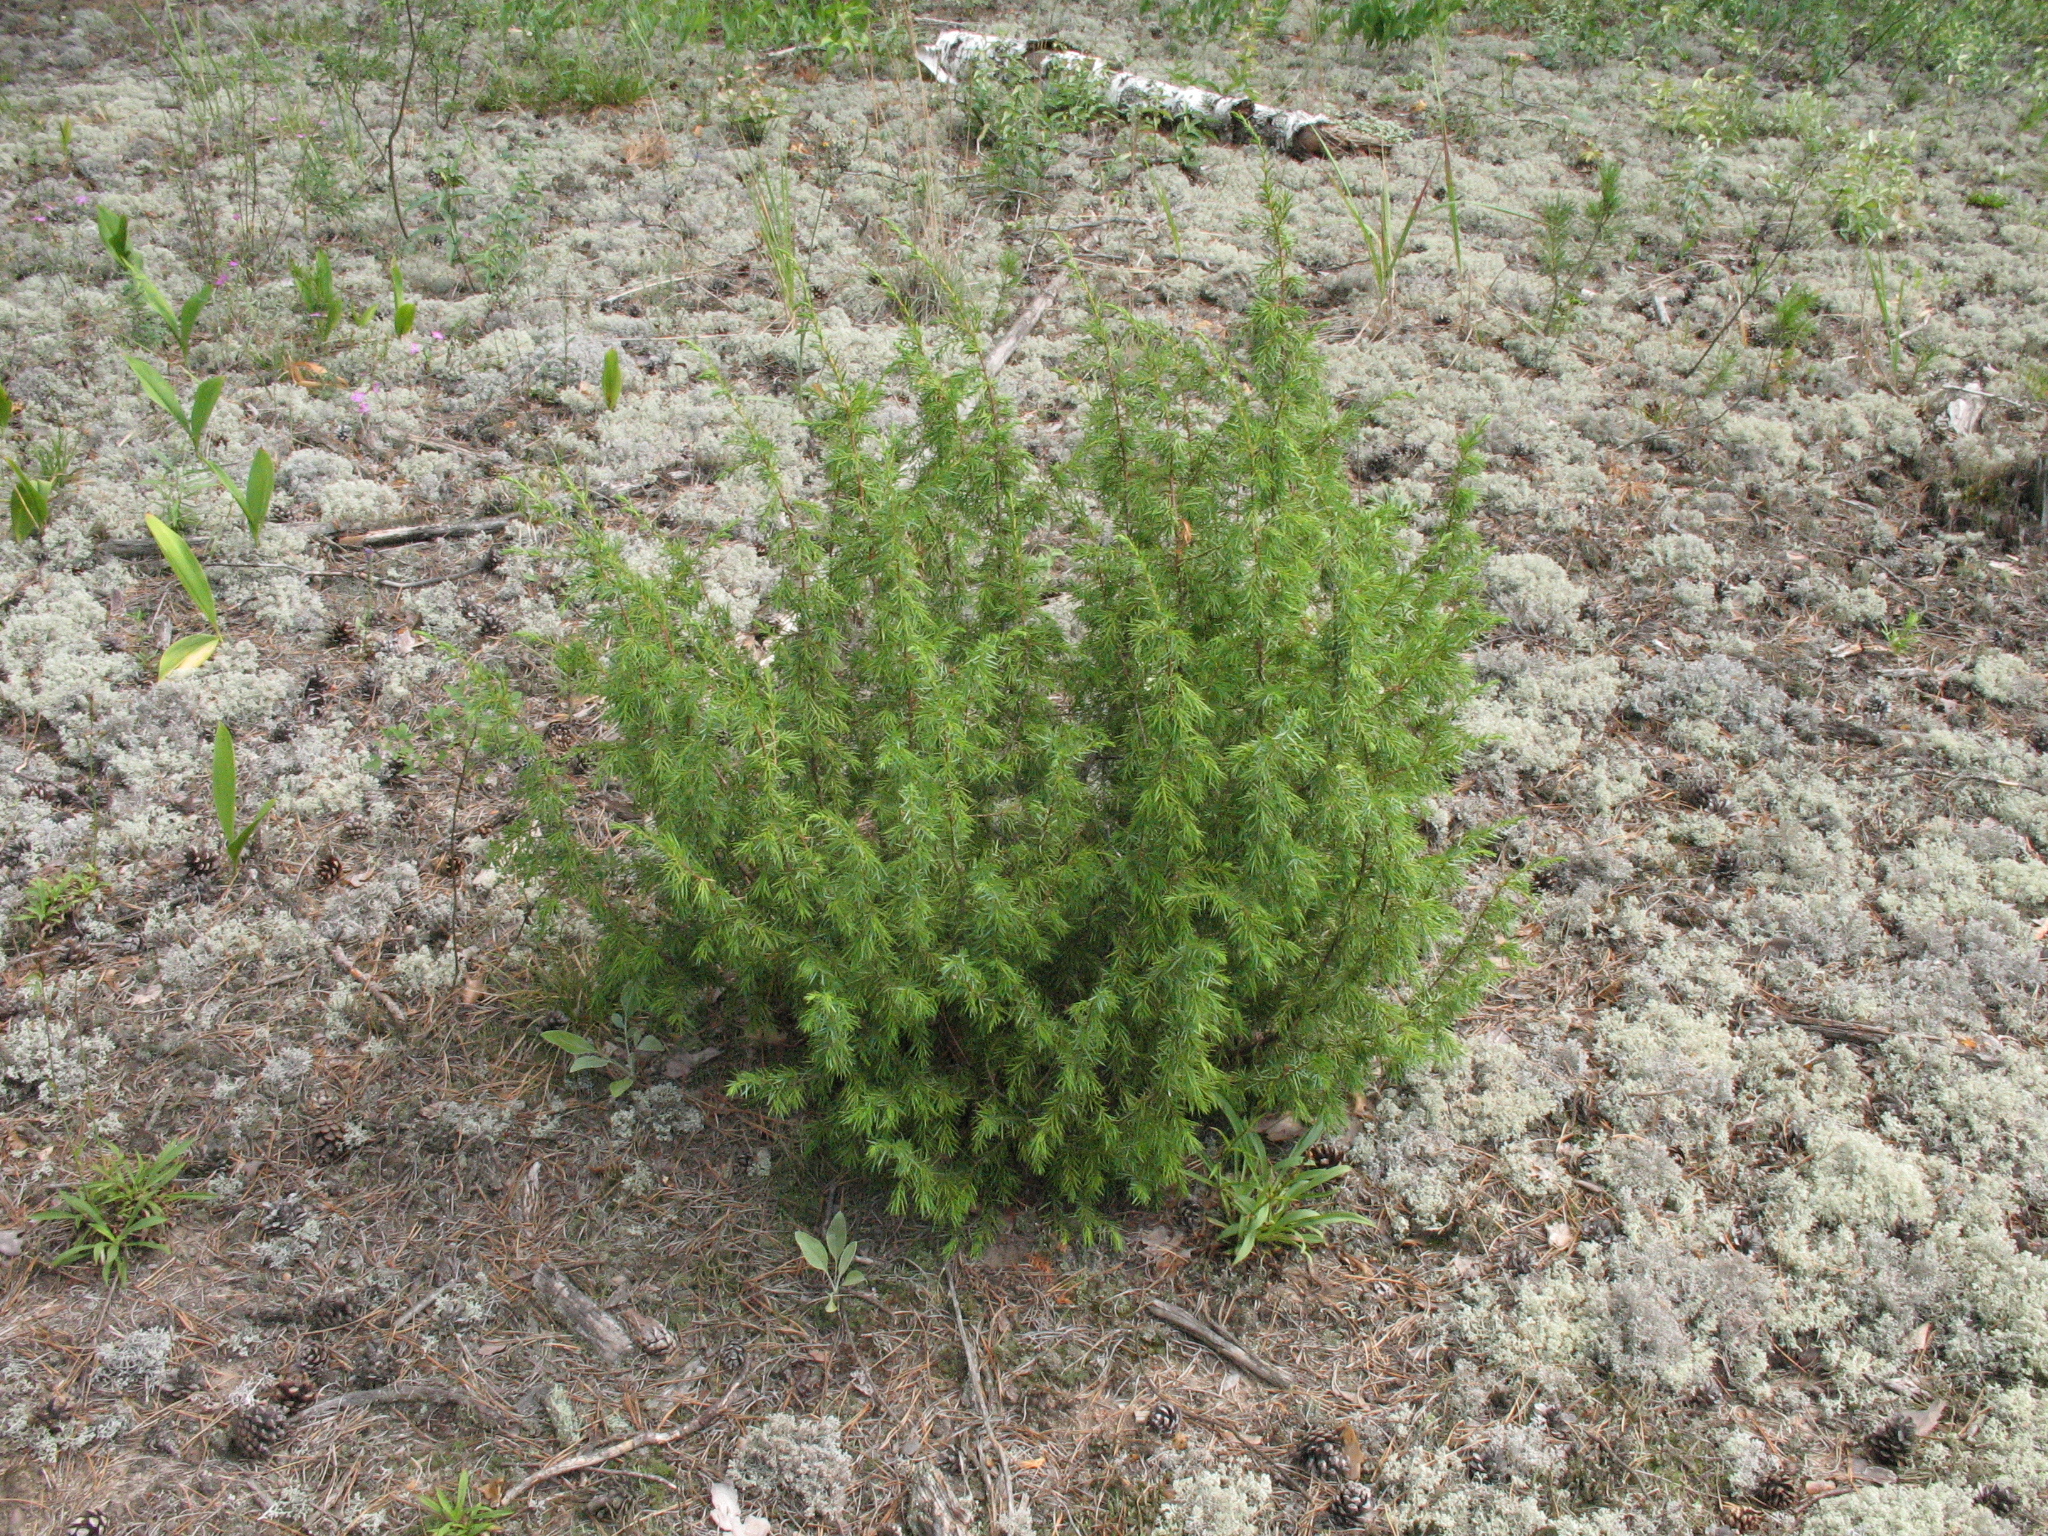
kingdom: Plantae
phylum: Tracheophyta
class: Pinopsida
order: Pinales
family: Cupressaceae
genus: Juniperus
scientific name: Juniperus communis
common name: Common juniper
